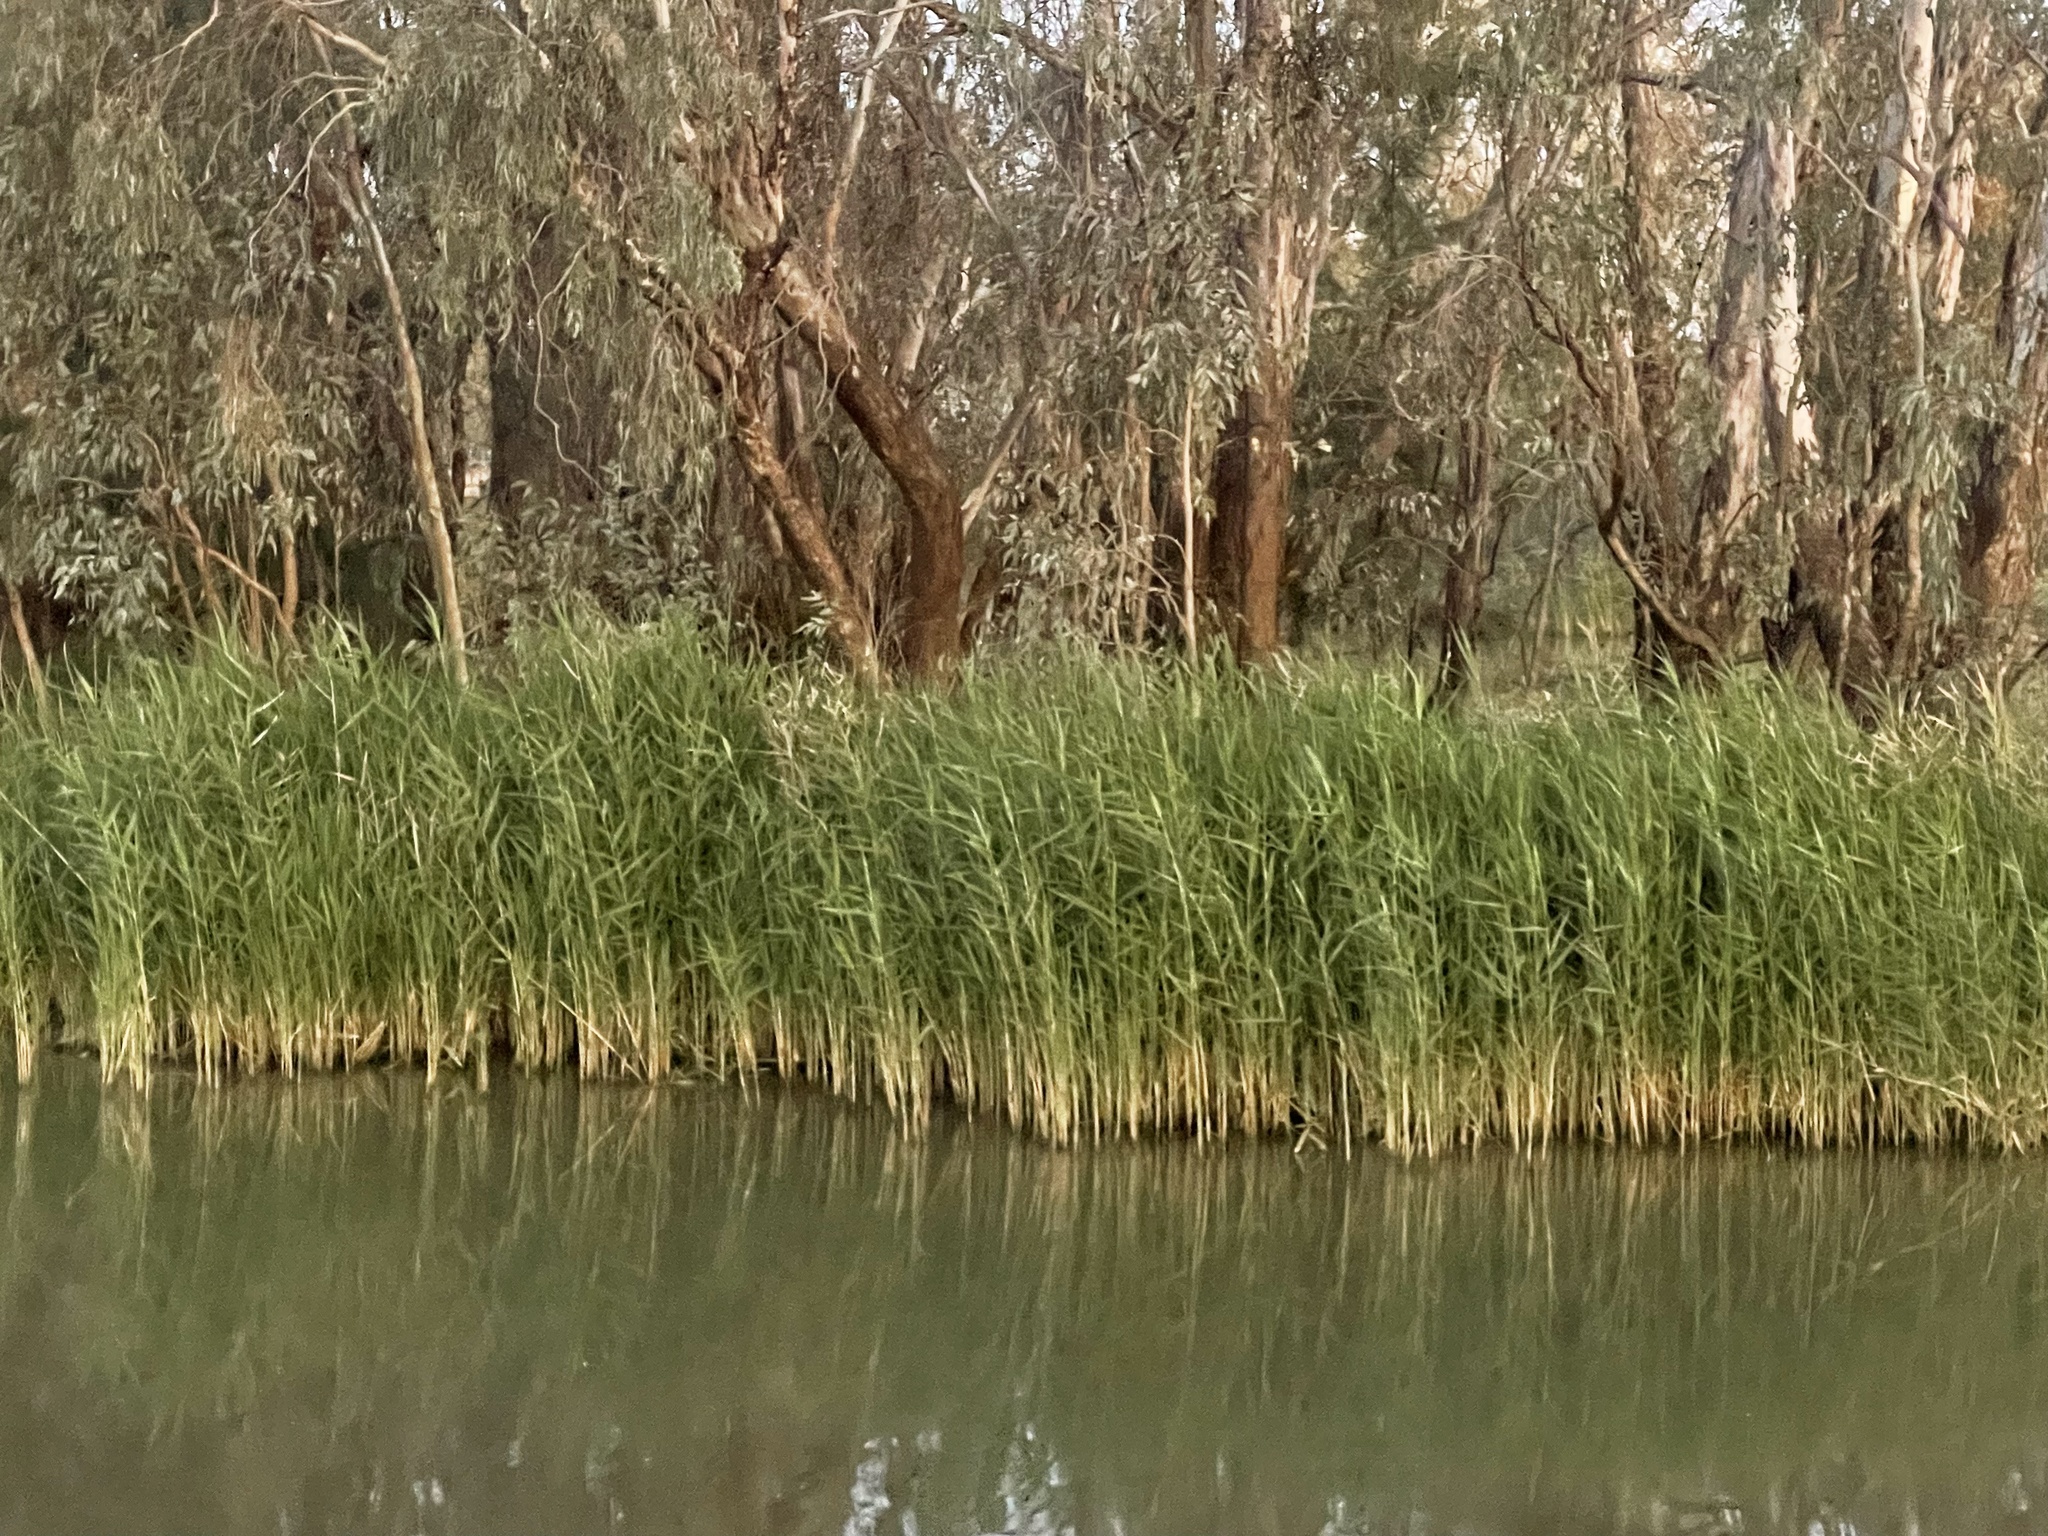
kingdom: Plantae
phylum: Tracheophyta
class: Liliopsida
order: Poales
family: Poaceae
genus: Phragmites
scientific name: Phragmites australis
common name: Common reed
